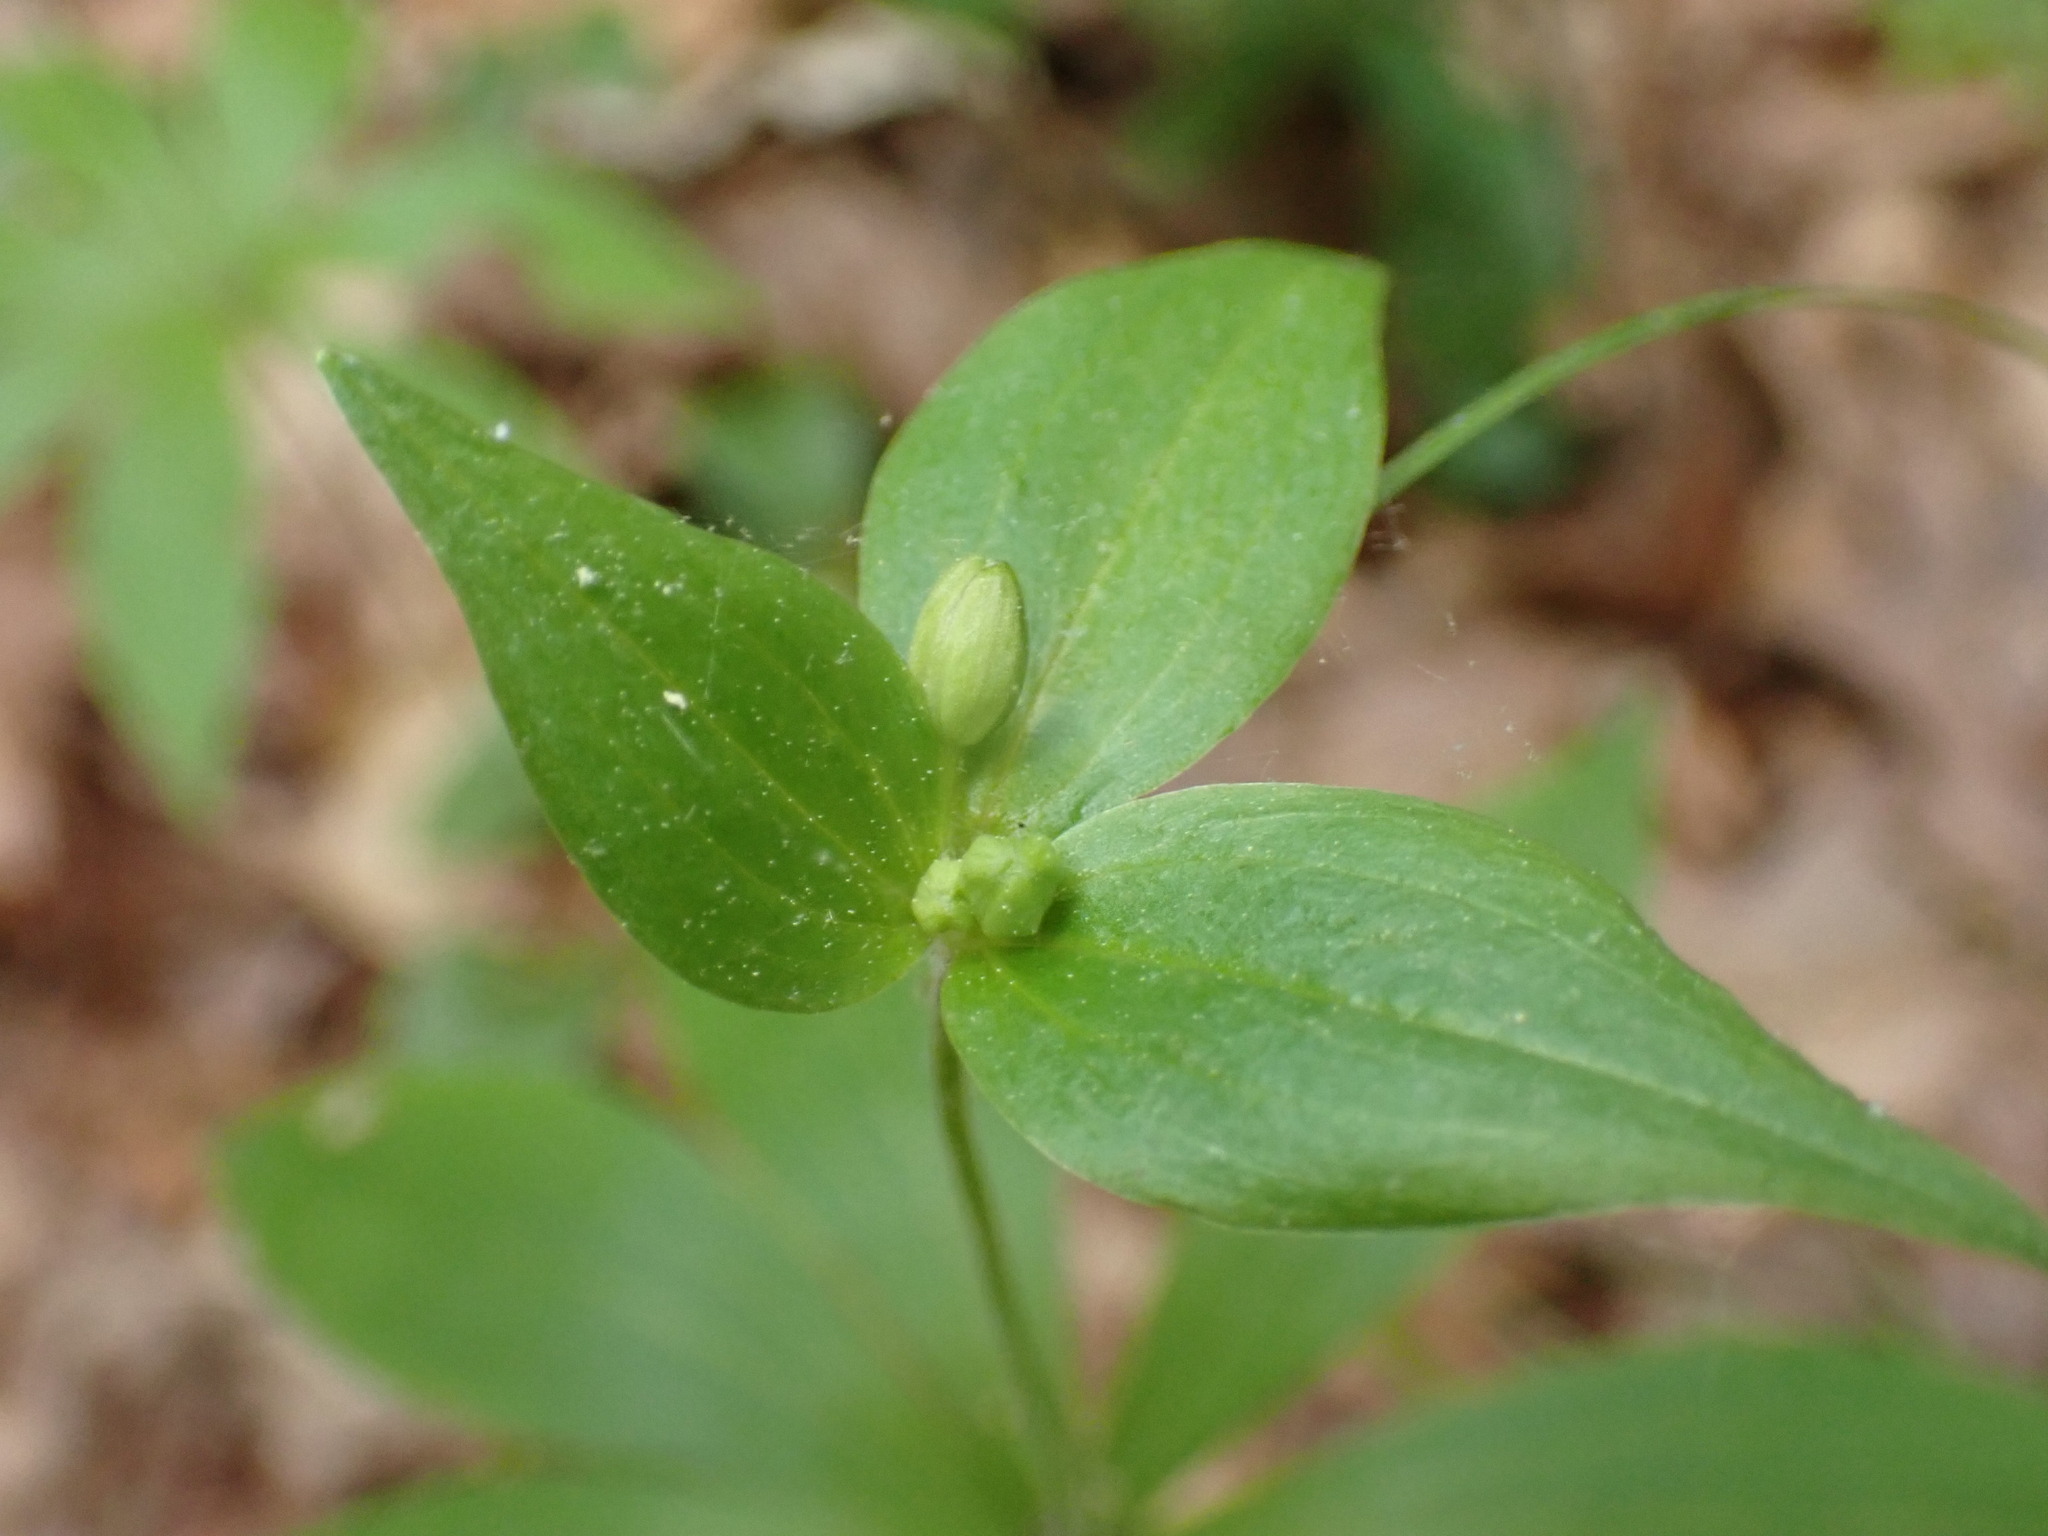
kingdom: Plantae
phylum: Tracheophyta
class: Liliopsida
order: Liliales
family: Liliaceae
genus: Medeola
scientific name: Medeola virginiana
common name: Indian cucumber-root
